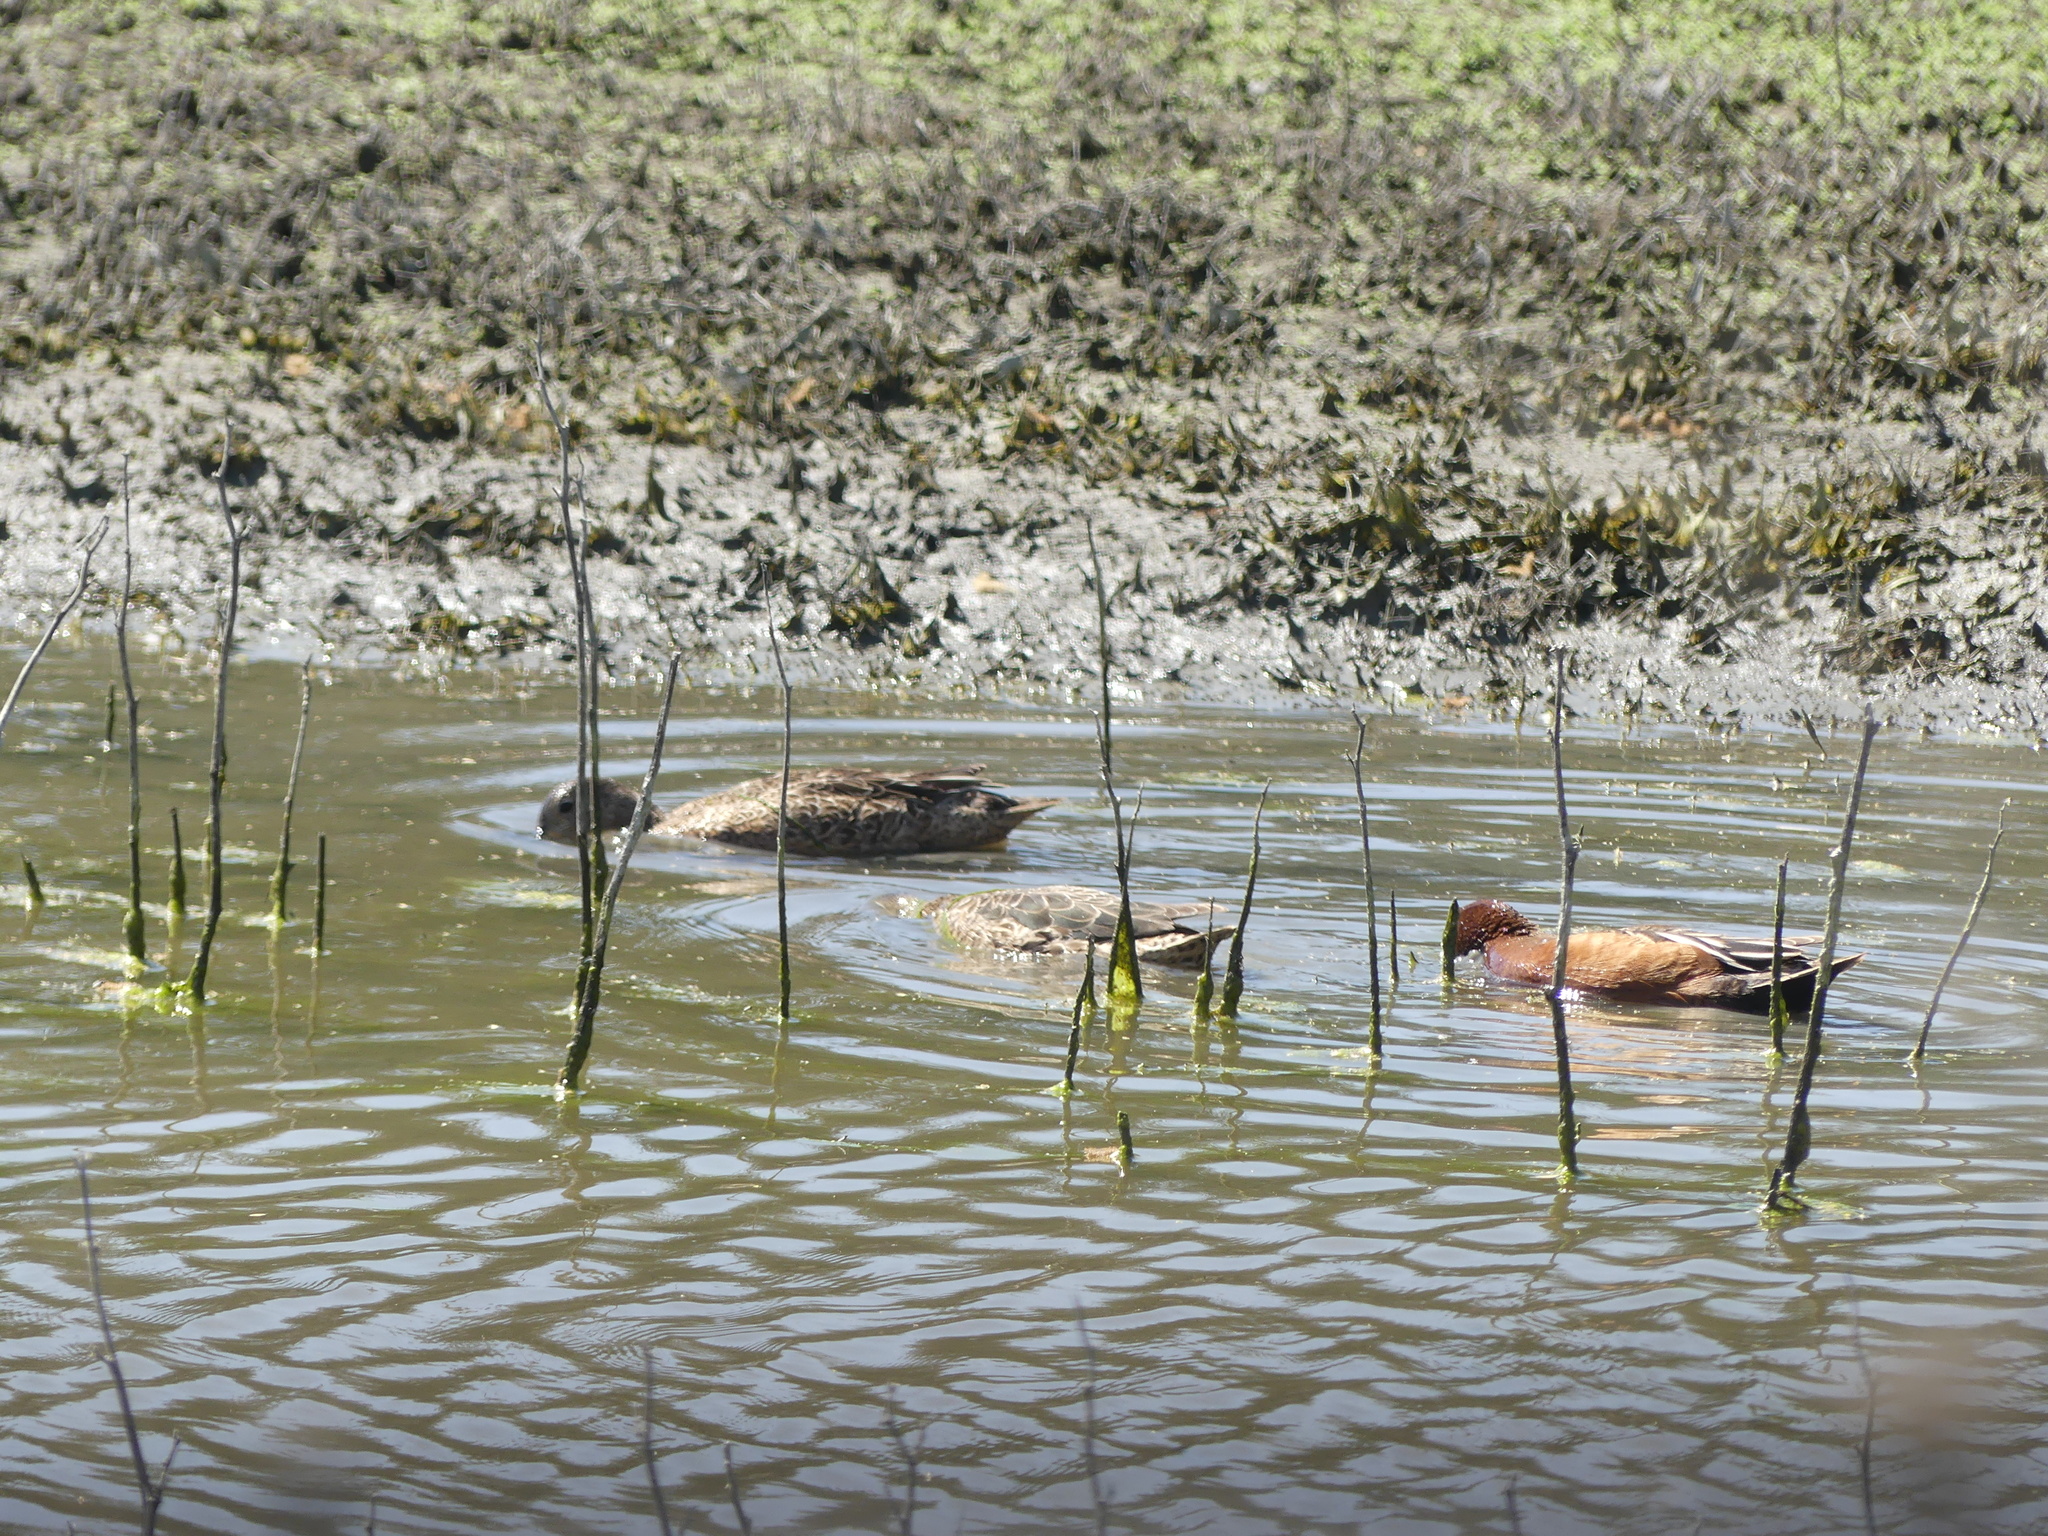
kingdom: Animalia
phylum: Chordata
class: Aves
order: Anseriformes
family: Anatidae
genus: Spatula
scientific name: Spatula cyanoptera
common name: Cinnamon teal
